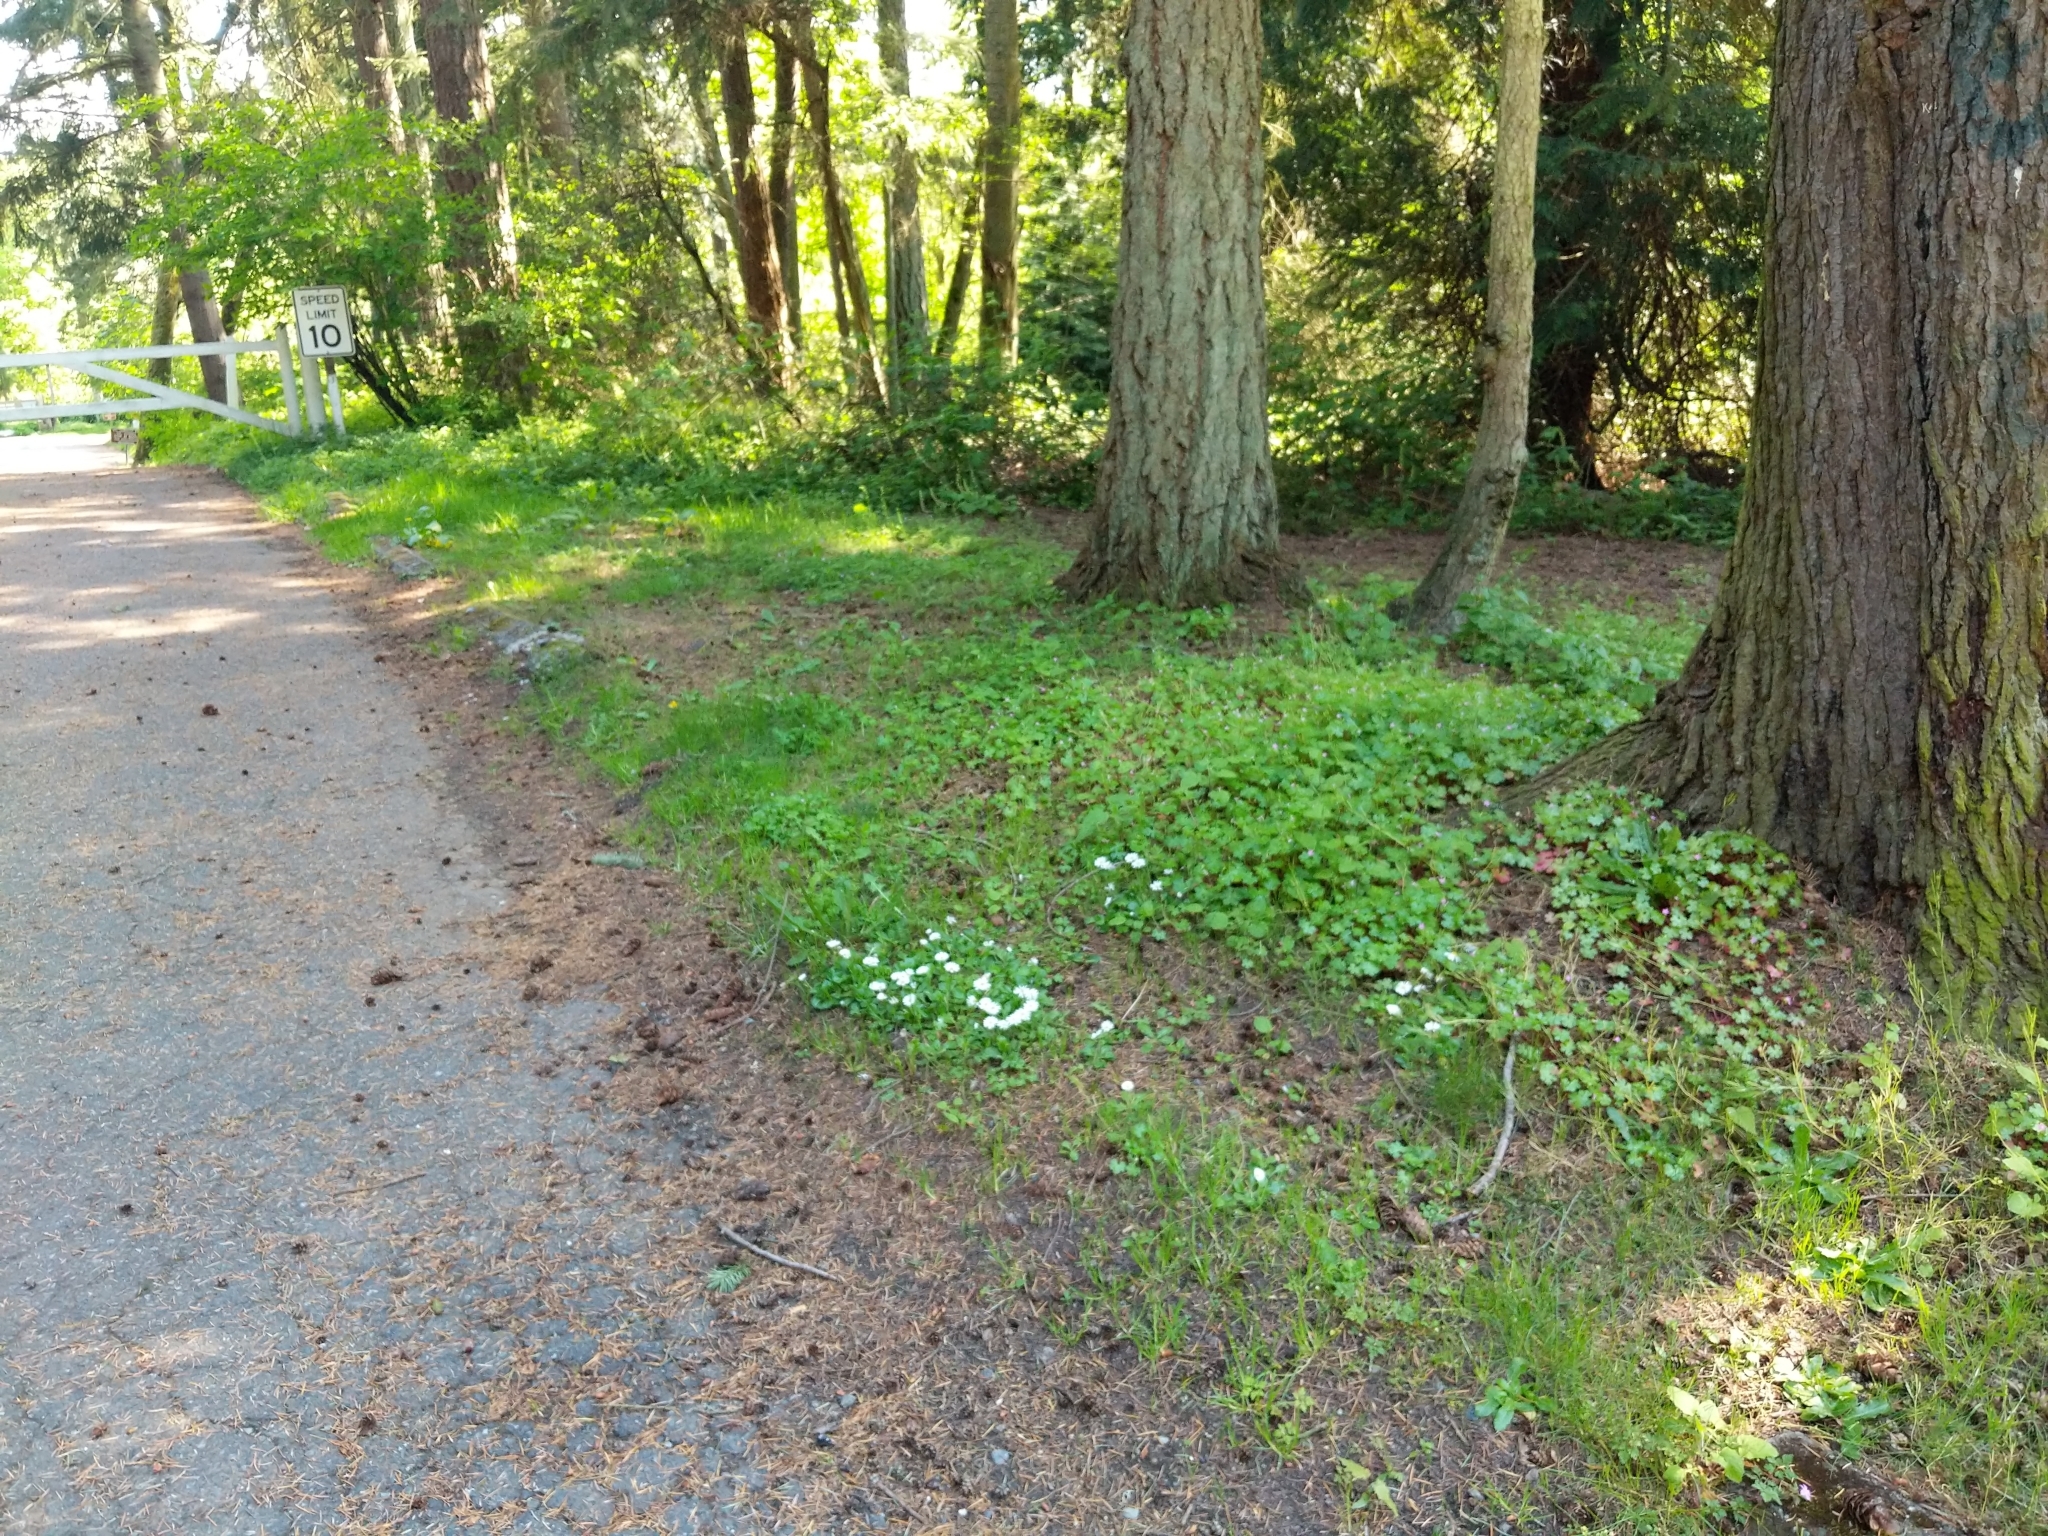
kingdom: Plantae
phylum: Tracheophyta
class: Magnoliopsida
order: Geraniales
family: Geraniaceae
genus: Geranium
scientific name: Geranium lucidum
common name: Shining crane's-bill
